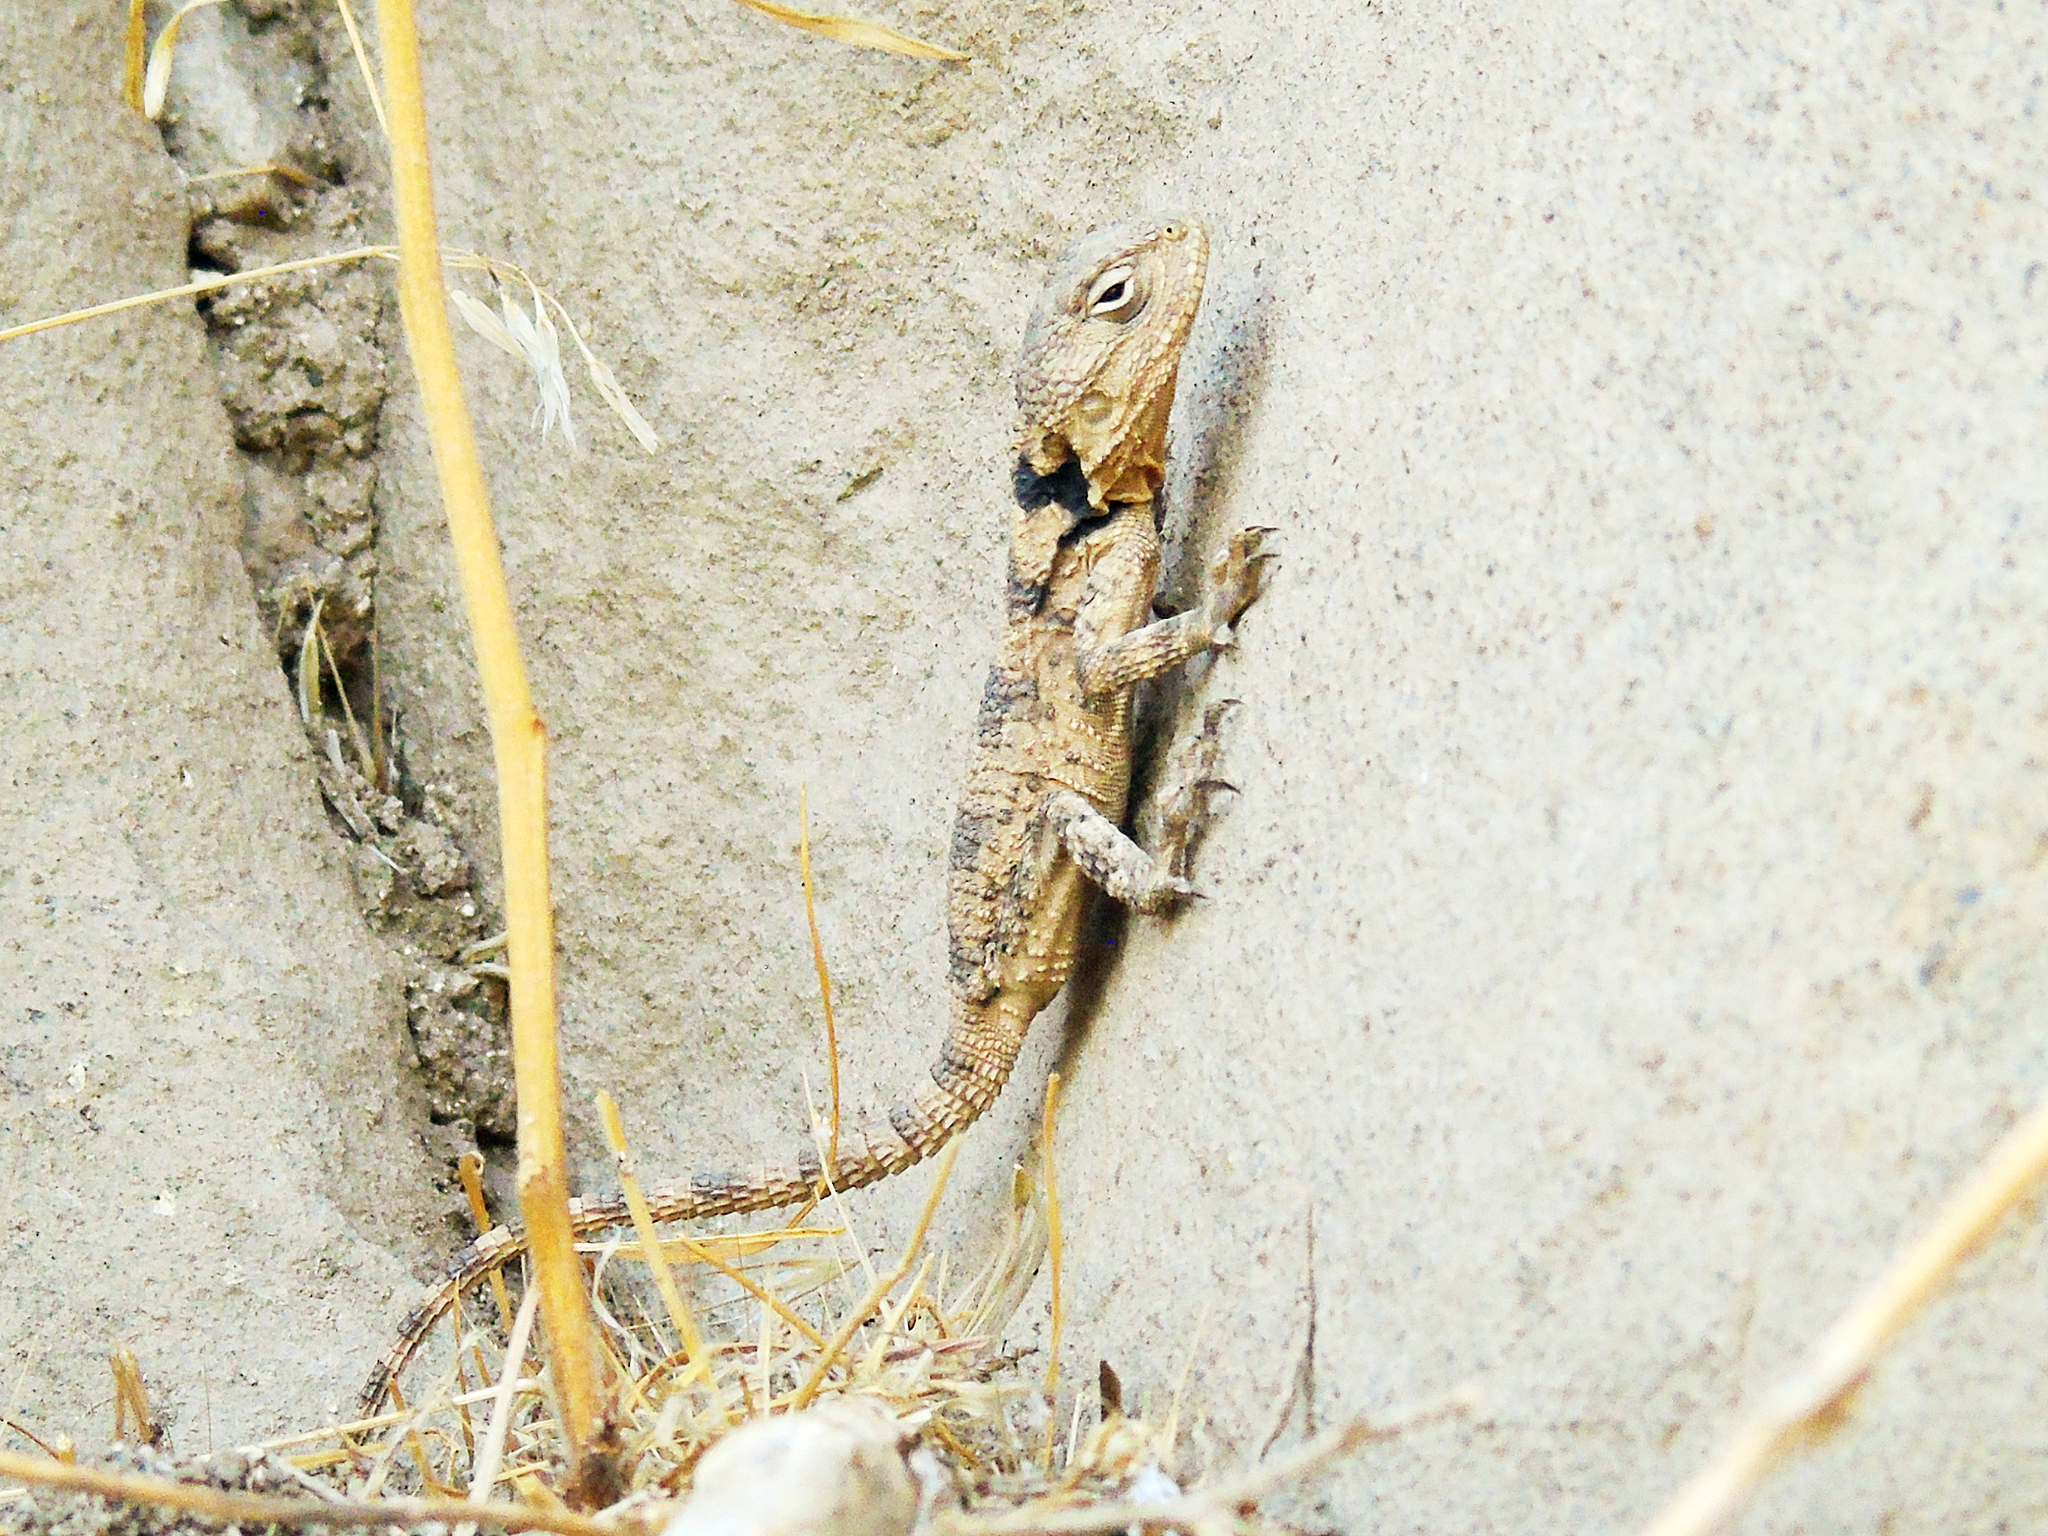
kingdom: Animalia
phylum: Chordata
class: Squamata
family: Agamidae
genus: Stellagama
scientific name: Stellagama stellio
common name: Starred agama
